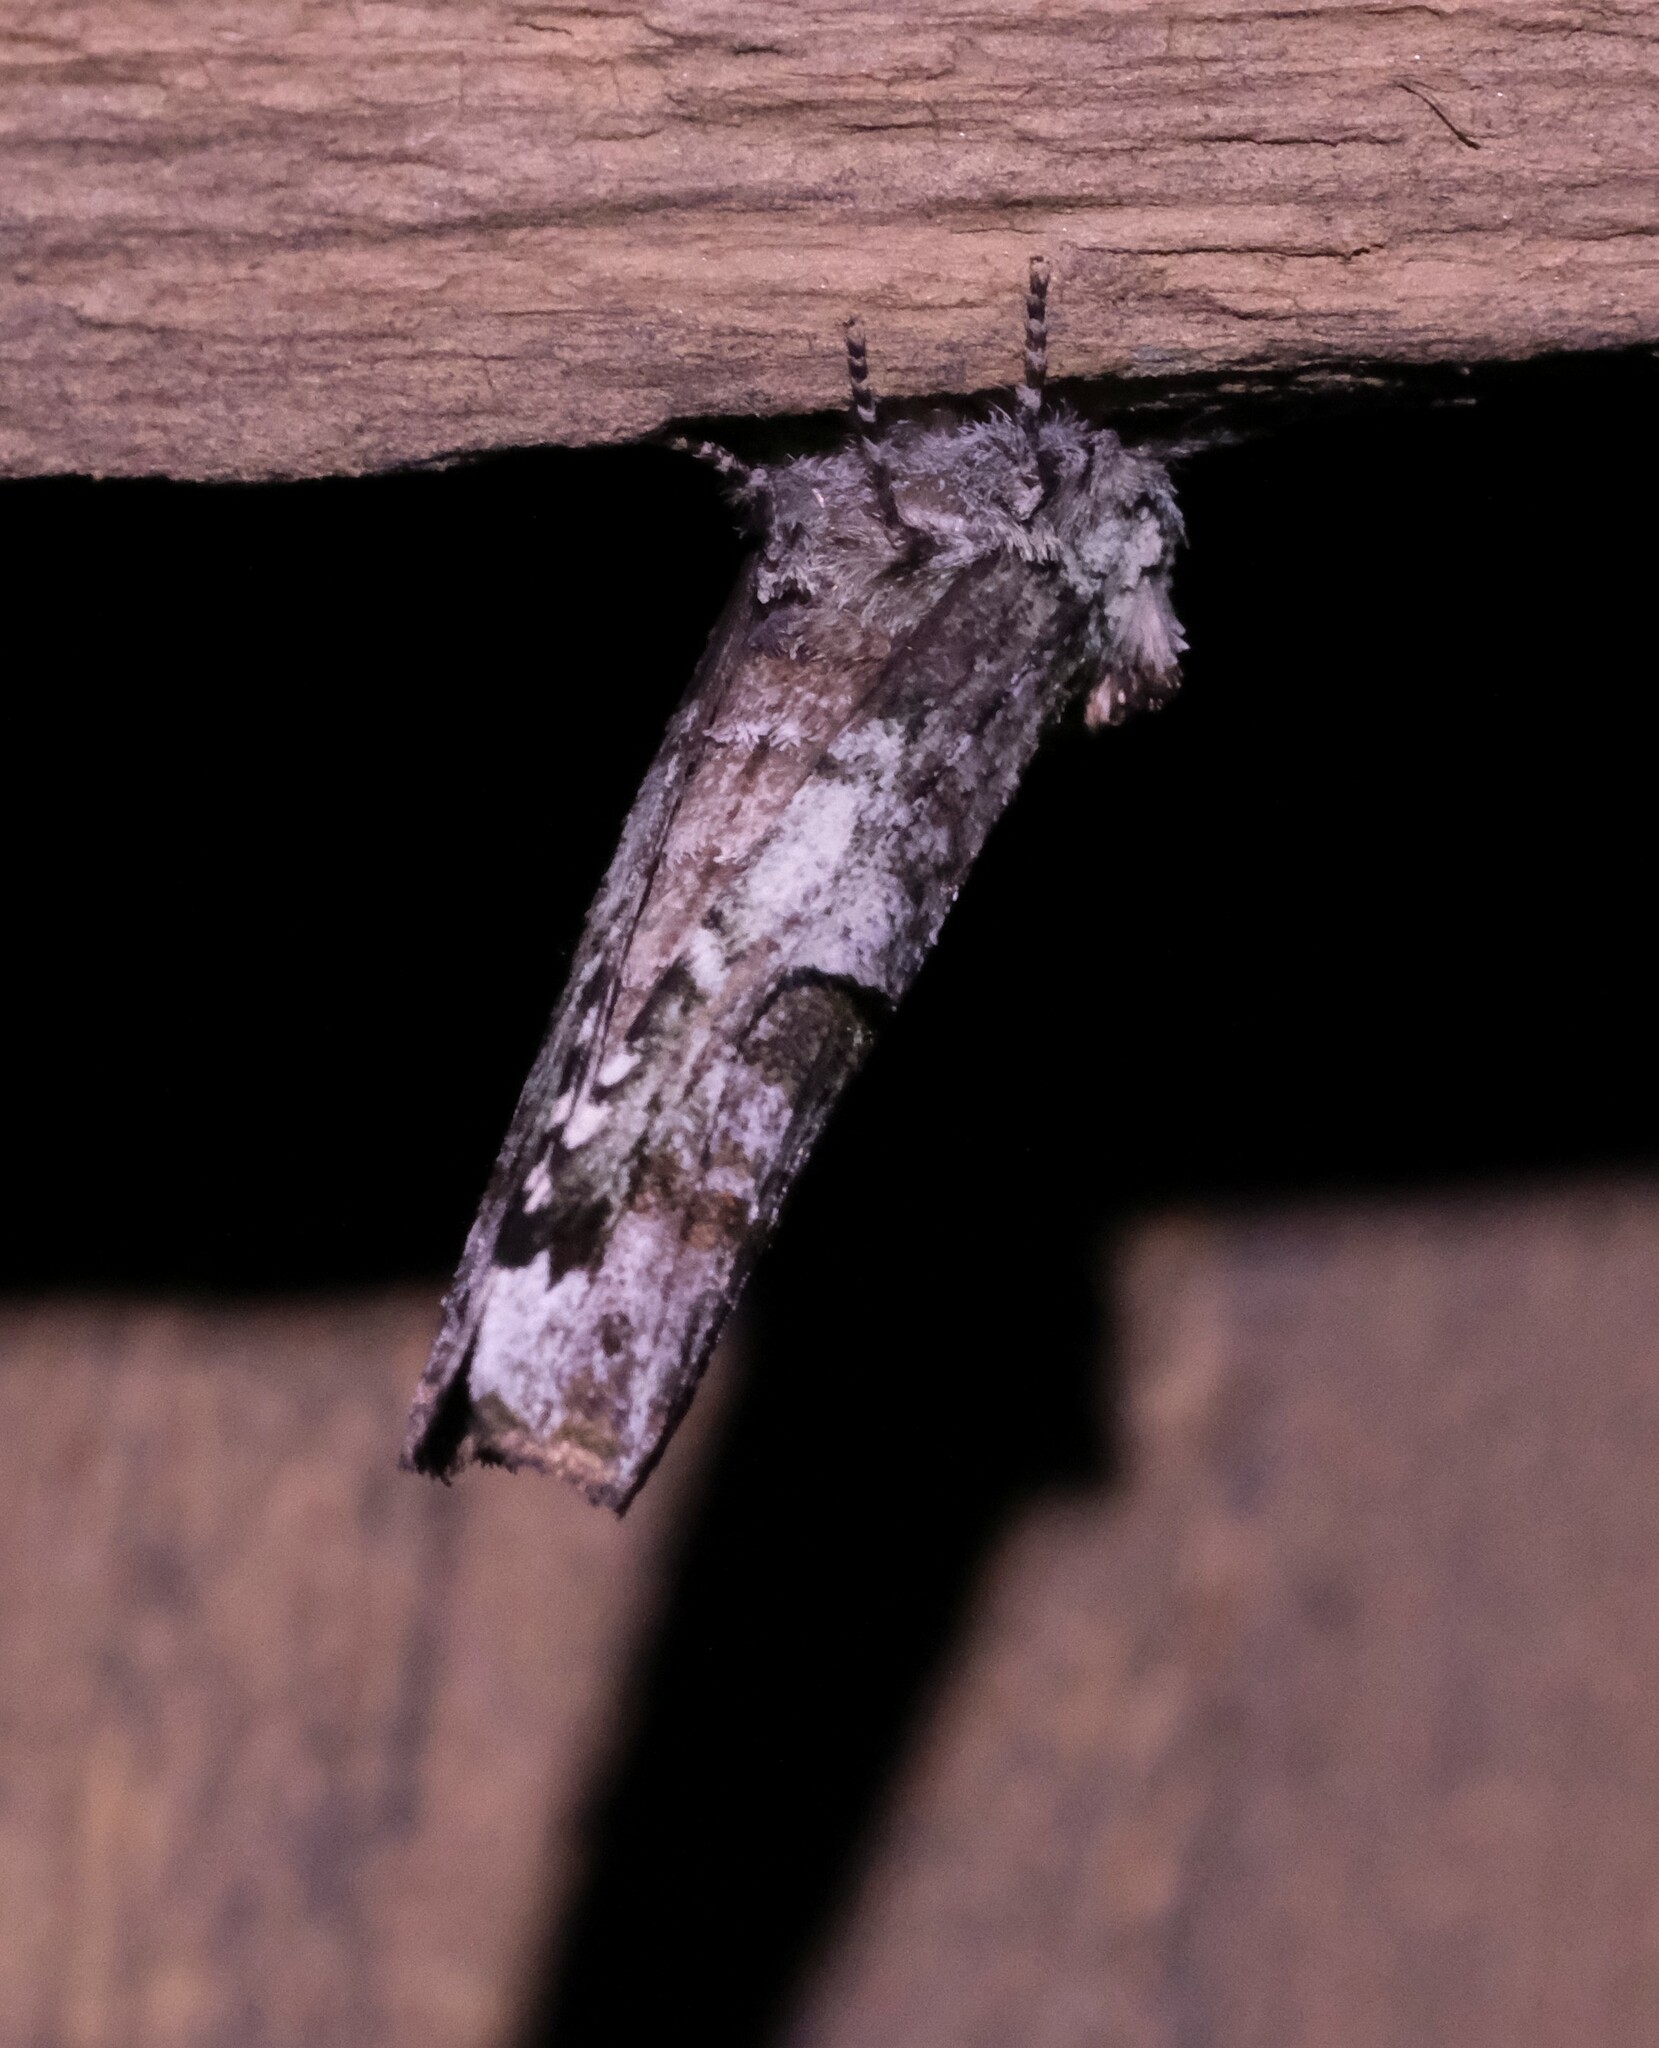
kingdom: Animalia
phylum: Arthropoda
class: Insecta
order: Lepidoptera
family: Notodontidae
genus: Schizura
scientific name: Schizura
